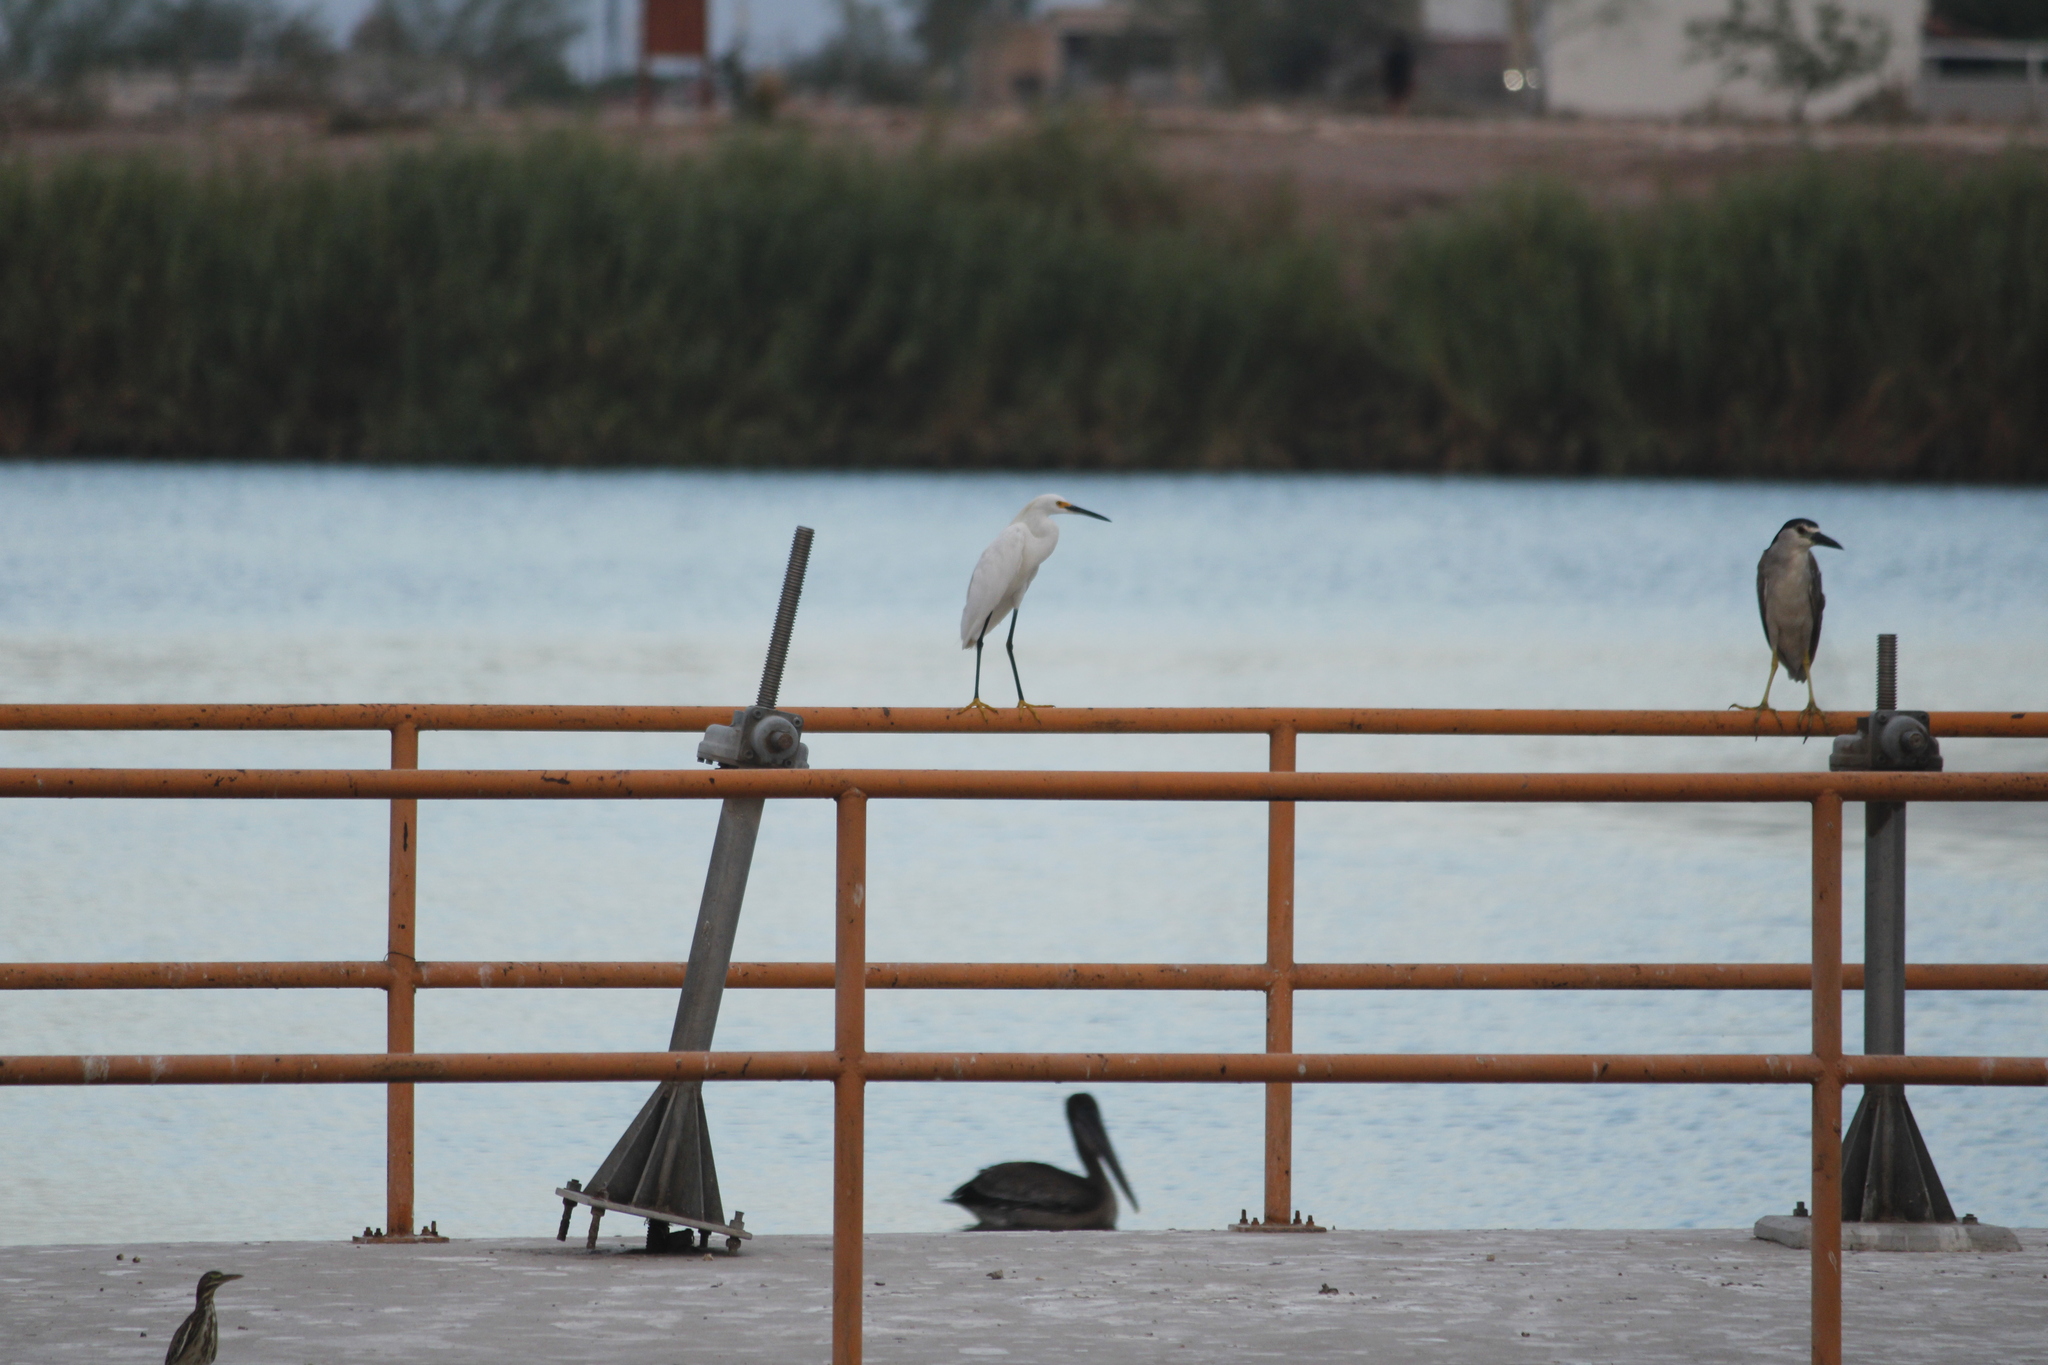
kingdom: Animalia
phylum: Chordata
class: Aves
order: Pelecaniformes
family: Ardeidae
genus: Egretta
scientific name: Egretta thula
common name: Snowy egret
